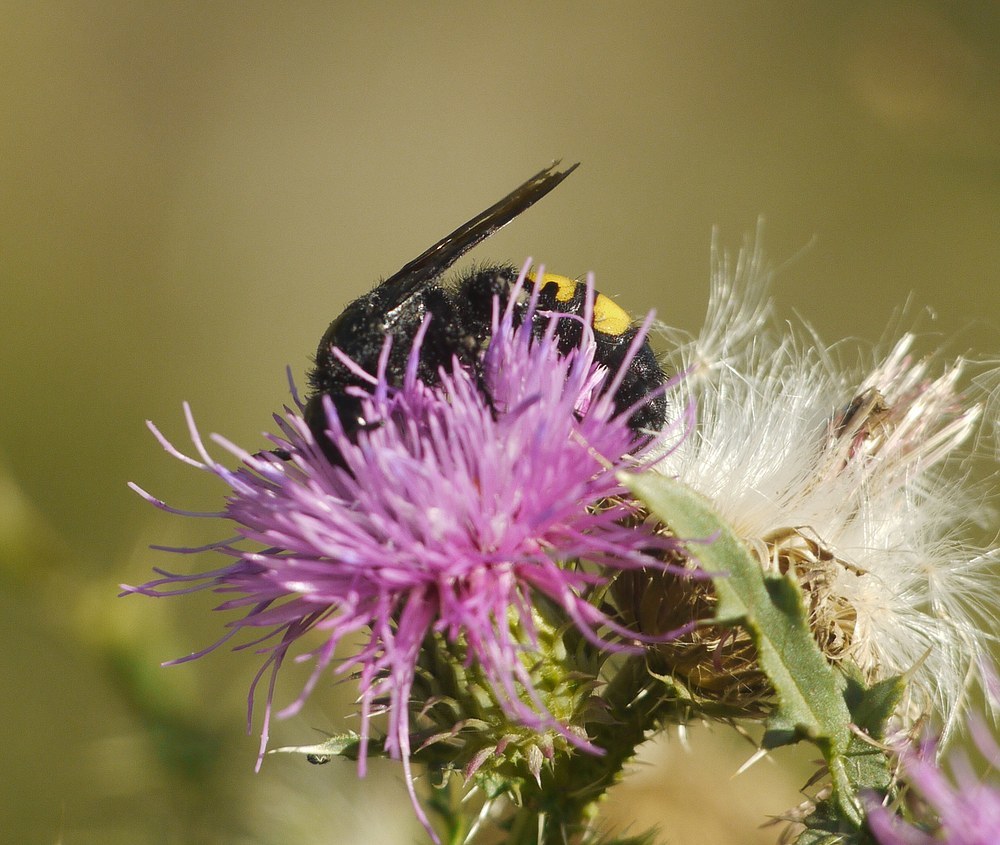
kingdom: Animalia
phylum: Arthropoda
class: Insecta
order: Hymenoptera
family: Scoliidae
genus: Scolia
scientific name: Scolia hirta
